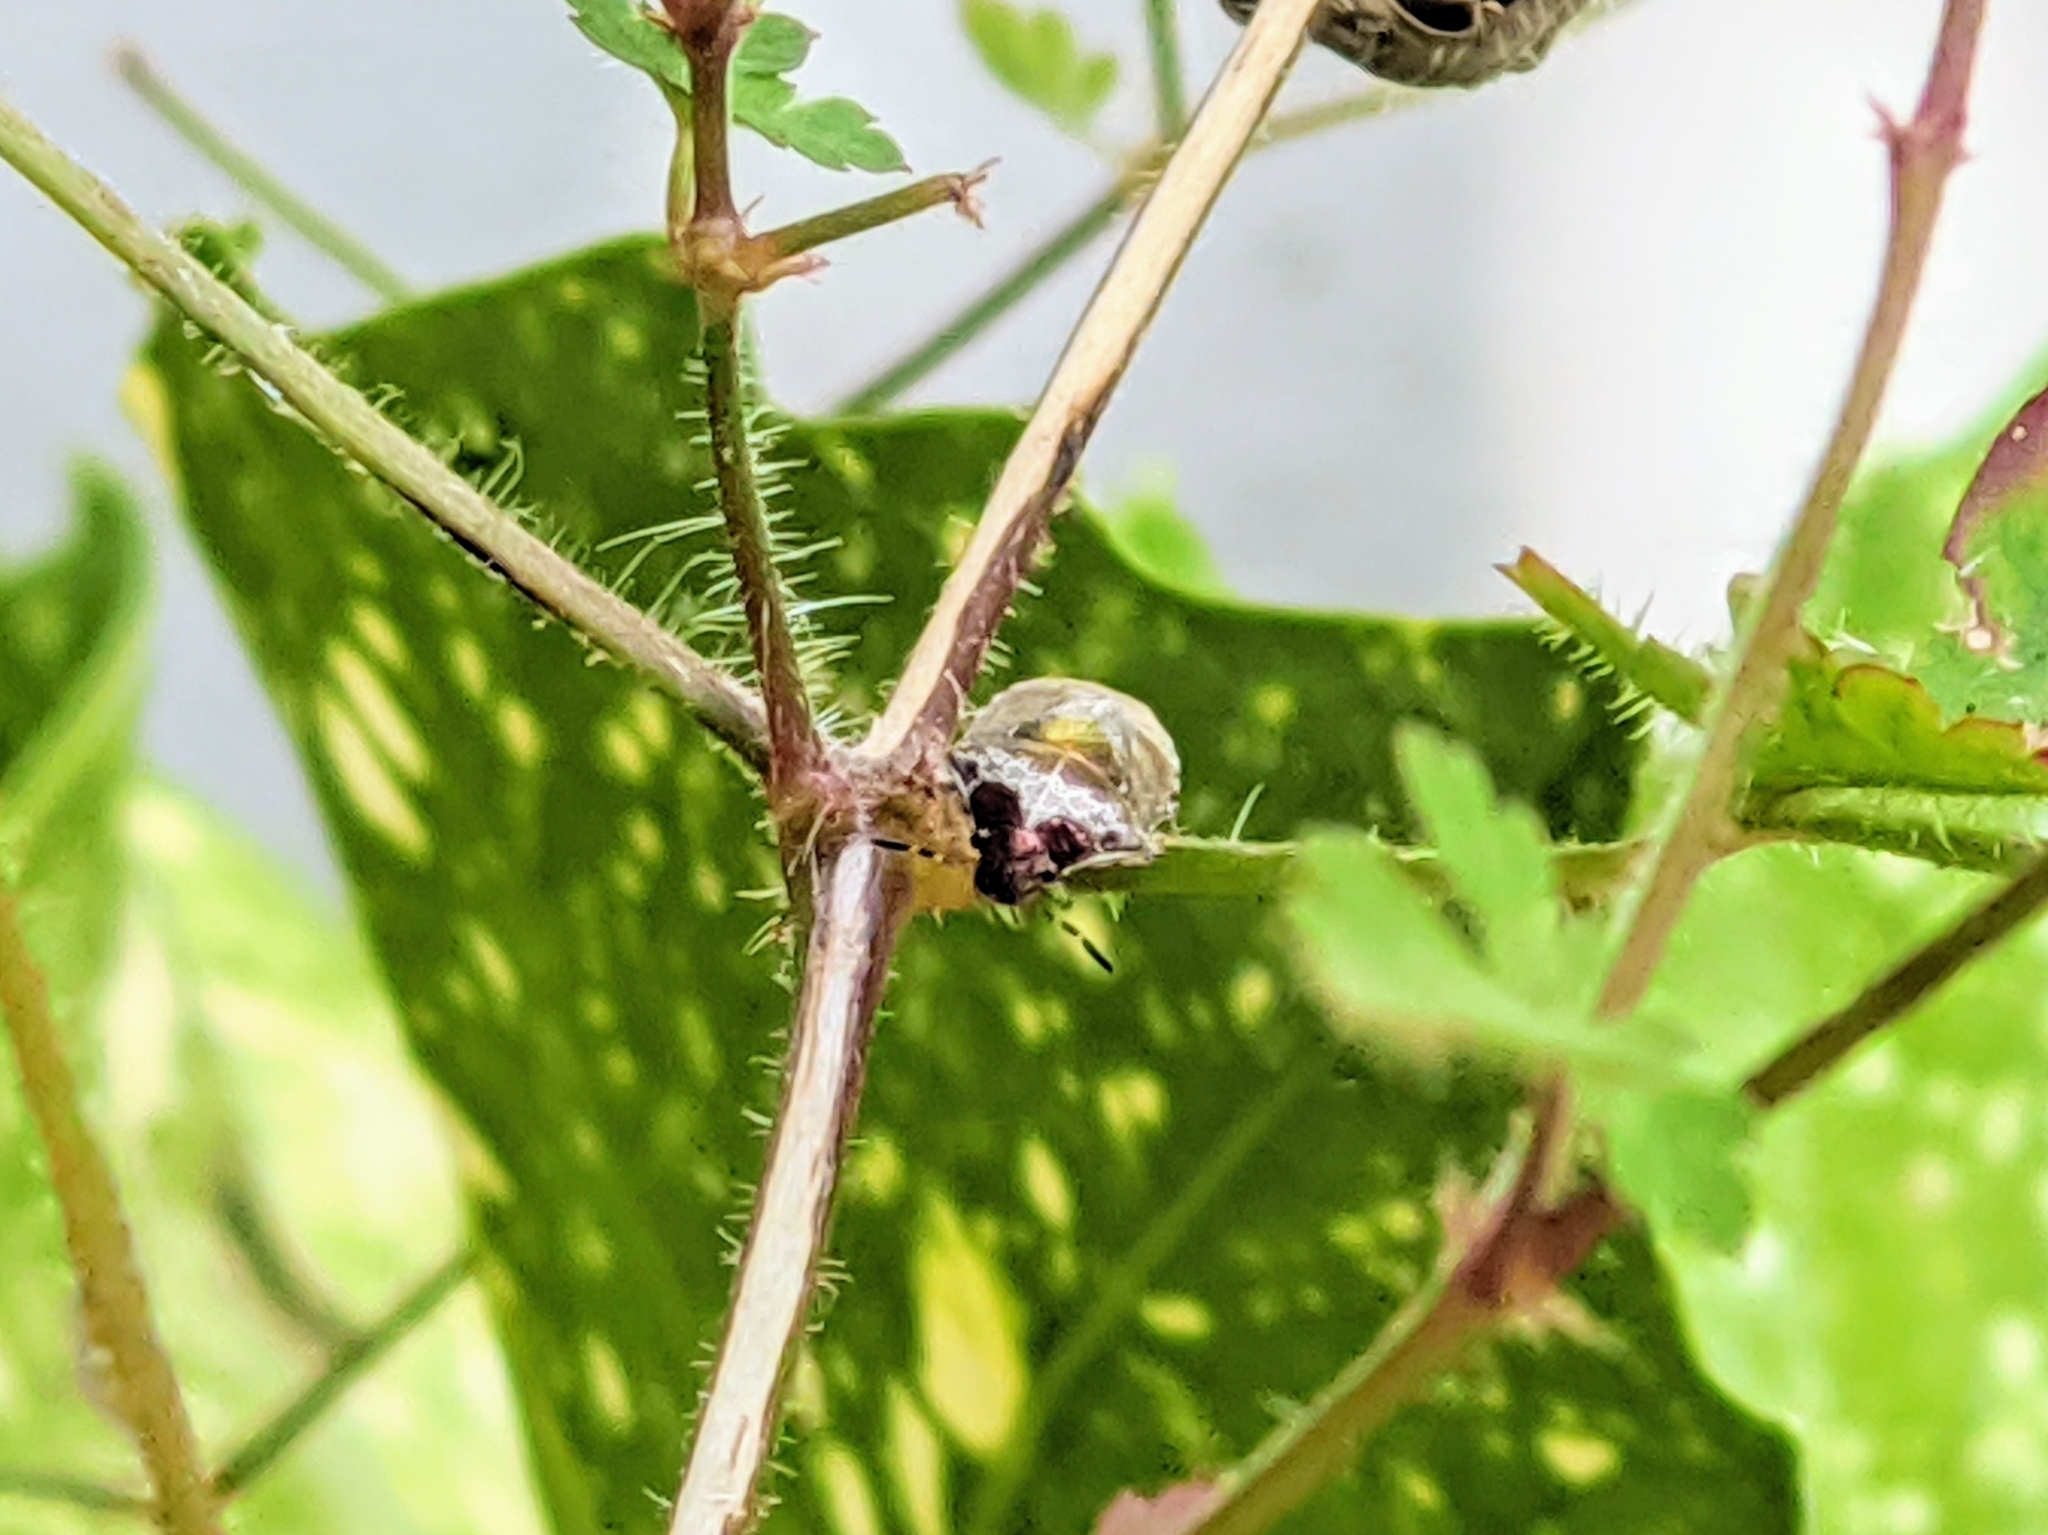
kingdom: Animalia
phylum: Arthropoda
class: Insecta
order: Hemiptera
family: Pentatomidae
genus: Eysarcoris
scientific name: Eysarcoris venustissimus
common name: Woundwort shieldbug
